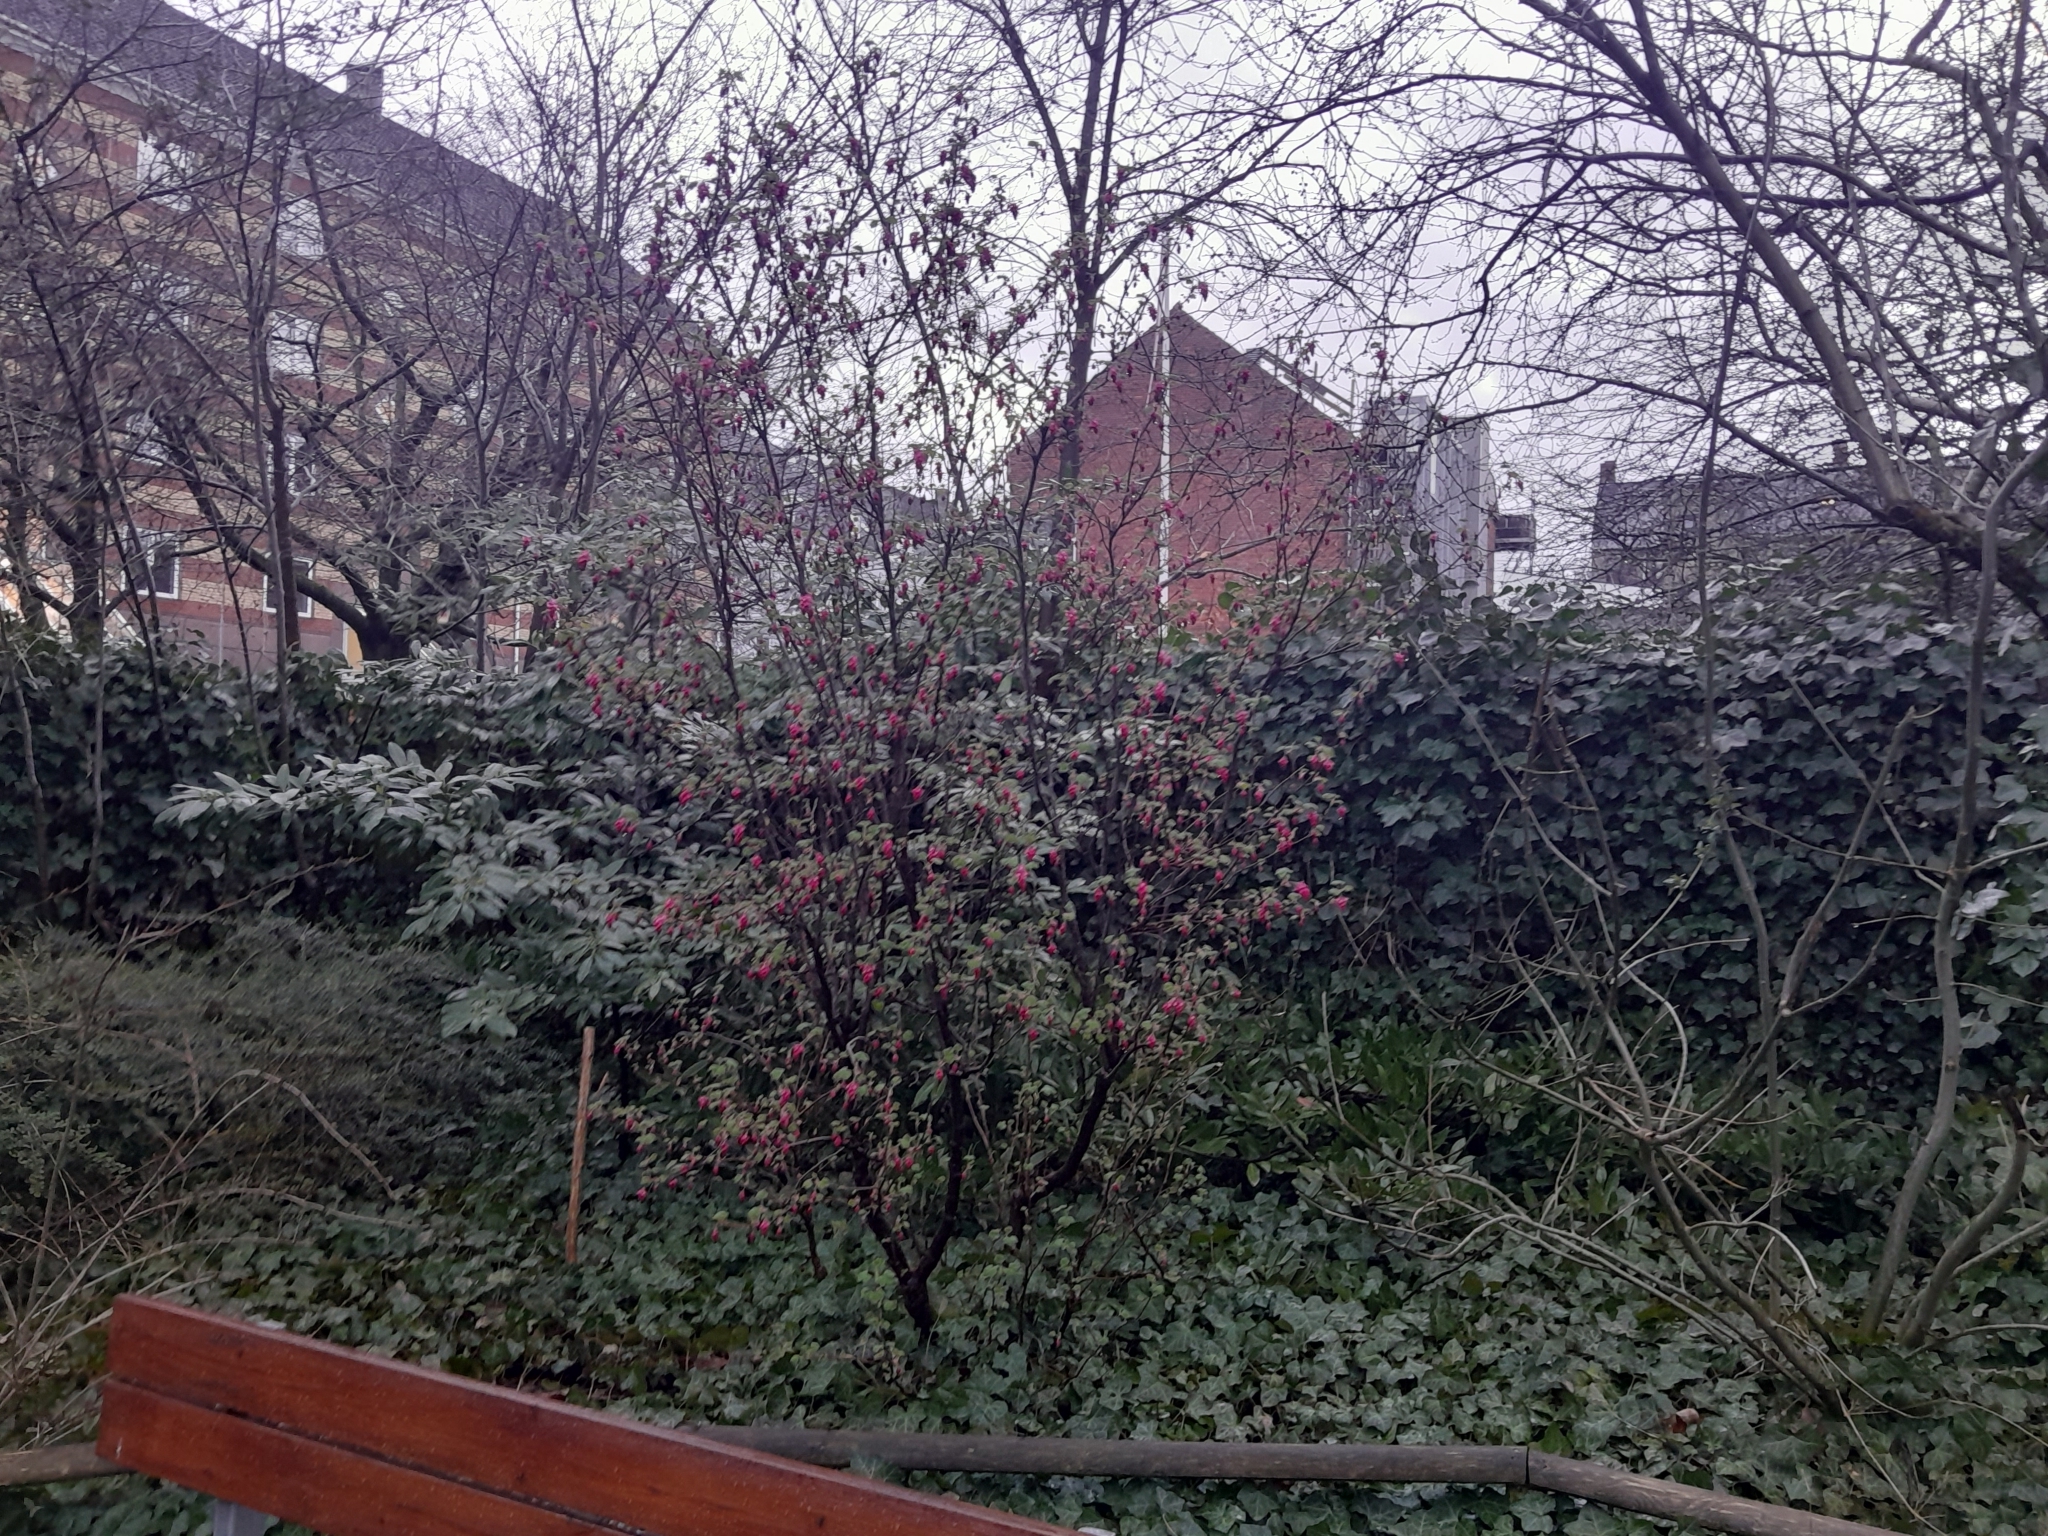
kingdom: Plantae
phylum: Tracheophyta
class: Magnoliopsida
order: Saxifragales
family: Grossulariaceae
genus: Ribes
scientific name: Ribes sanguineum
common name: Flowering currant
